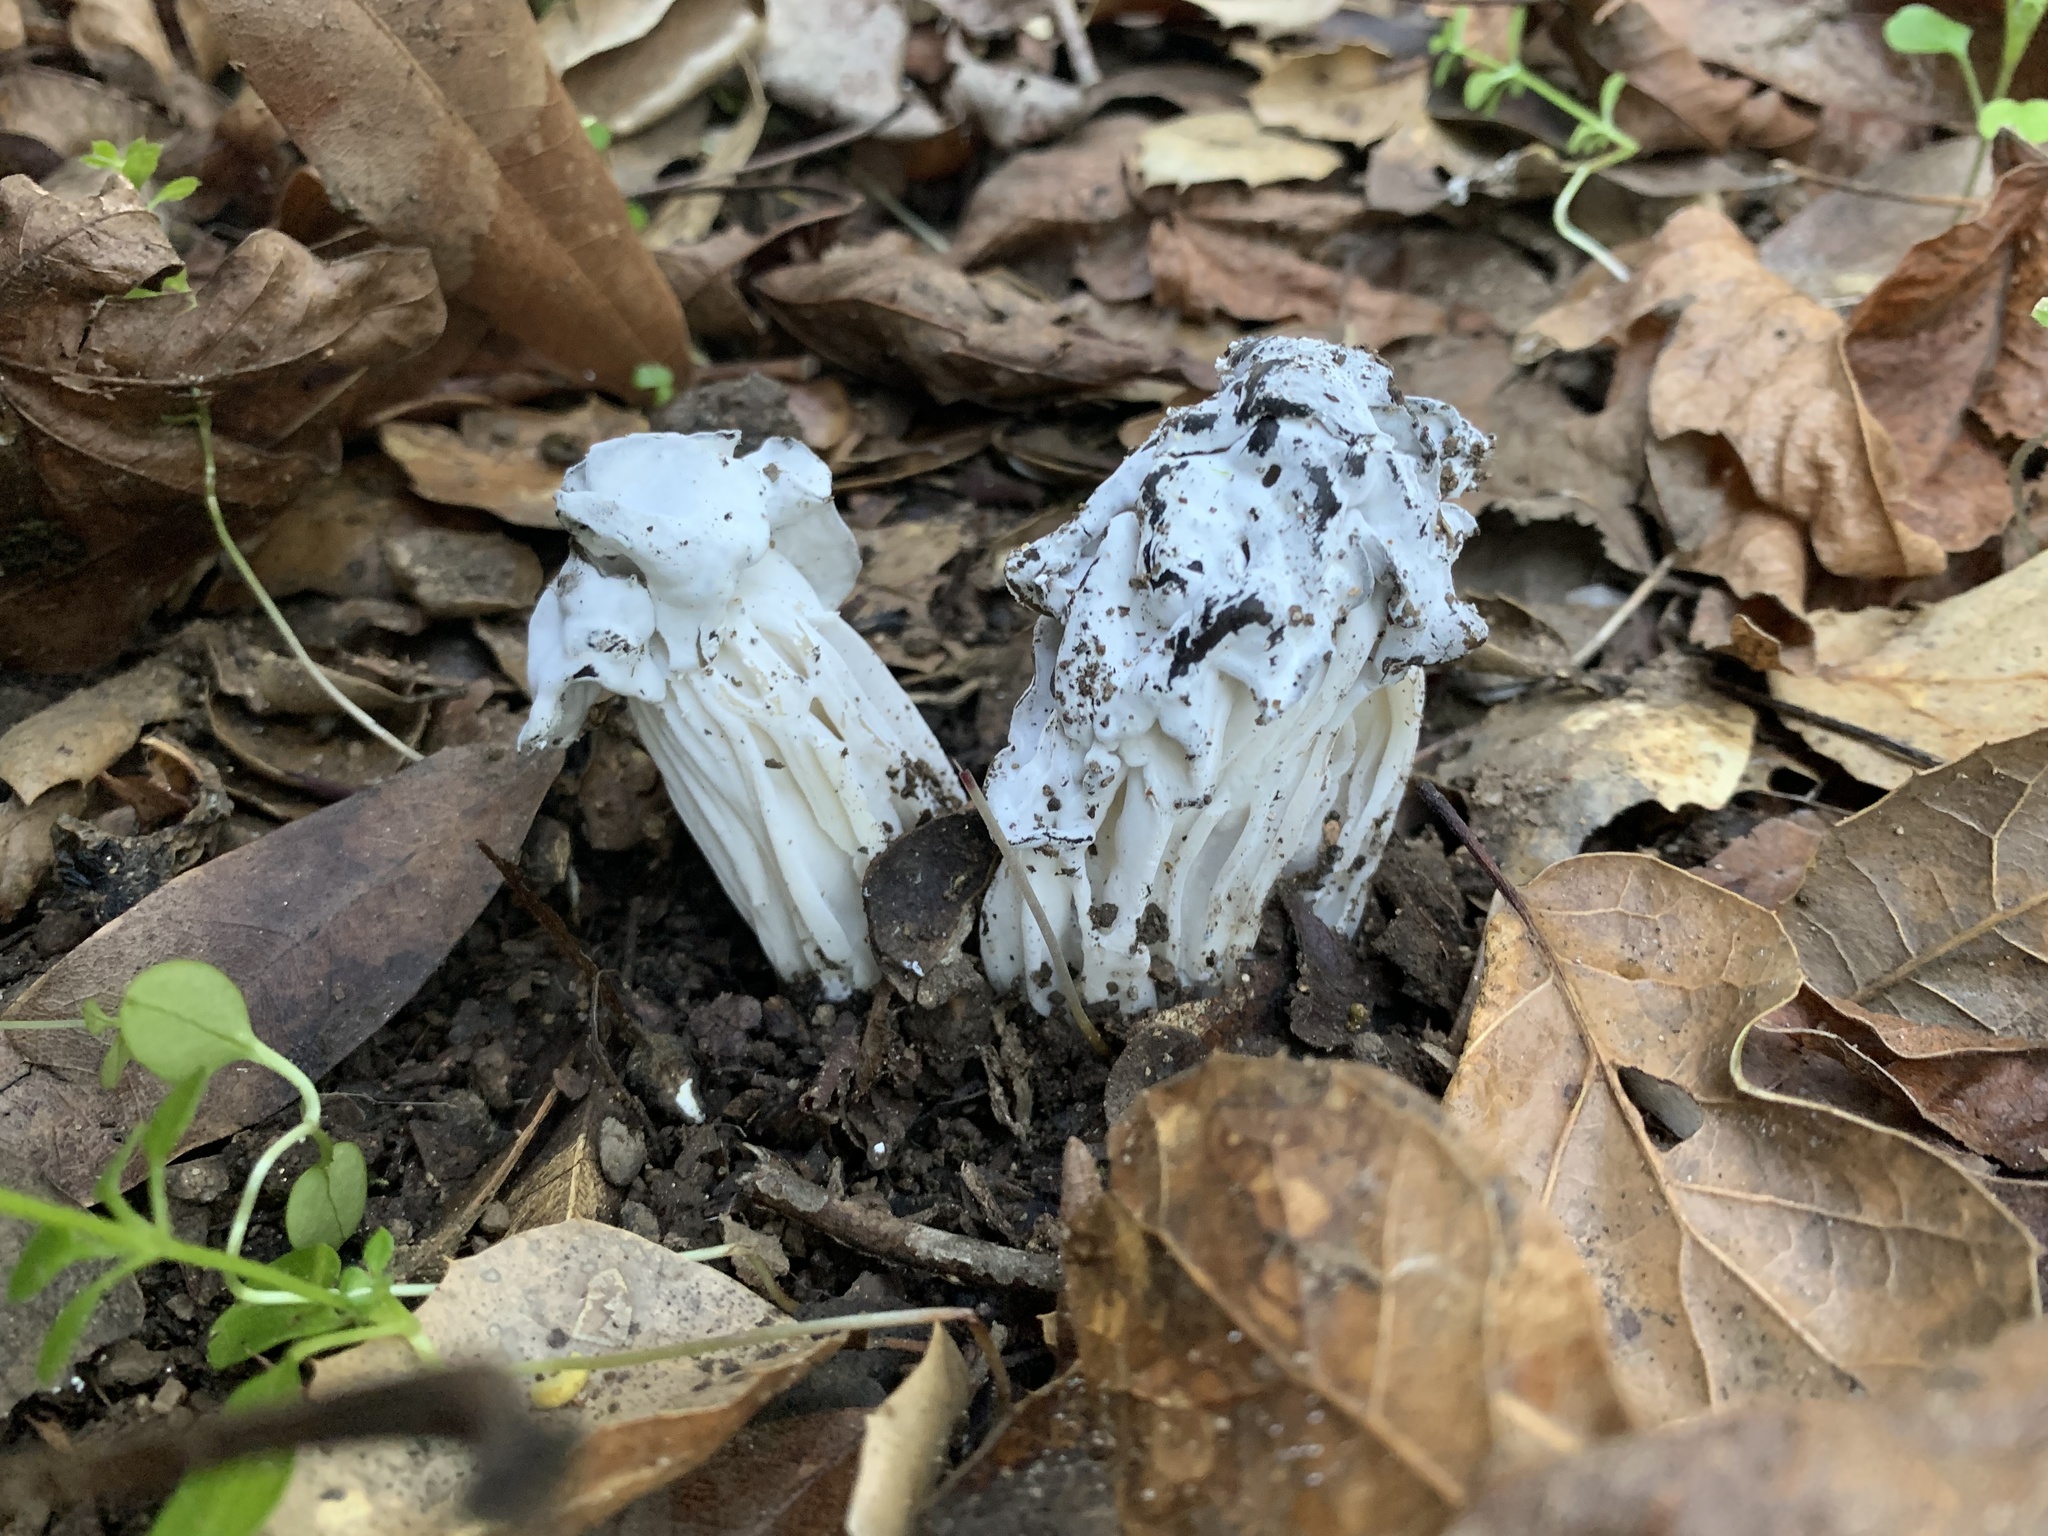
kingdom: Fungi
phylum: Ascomycota
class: Sordariomycetes
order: Hypocreales
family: Hypocreaceae
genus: Hypomyces
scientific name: Hypomyces cervinus
